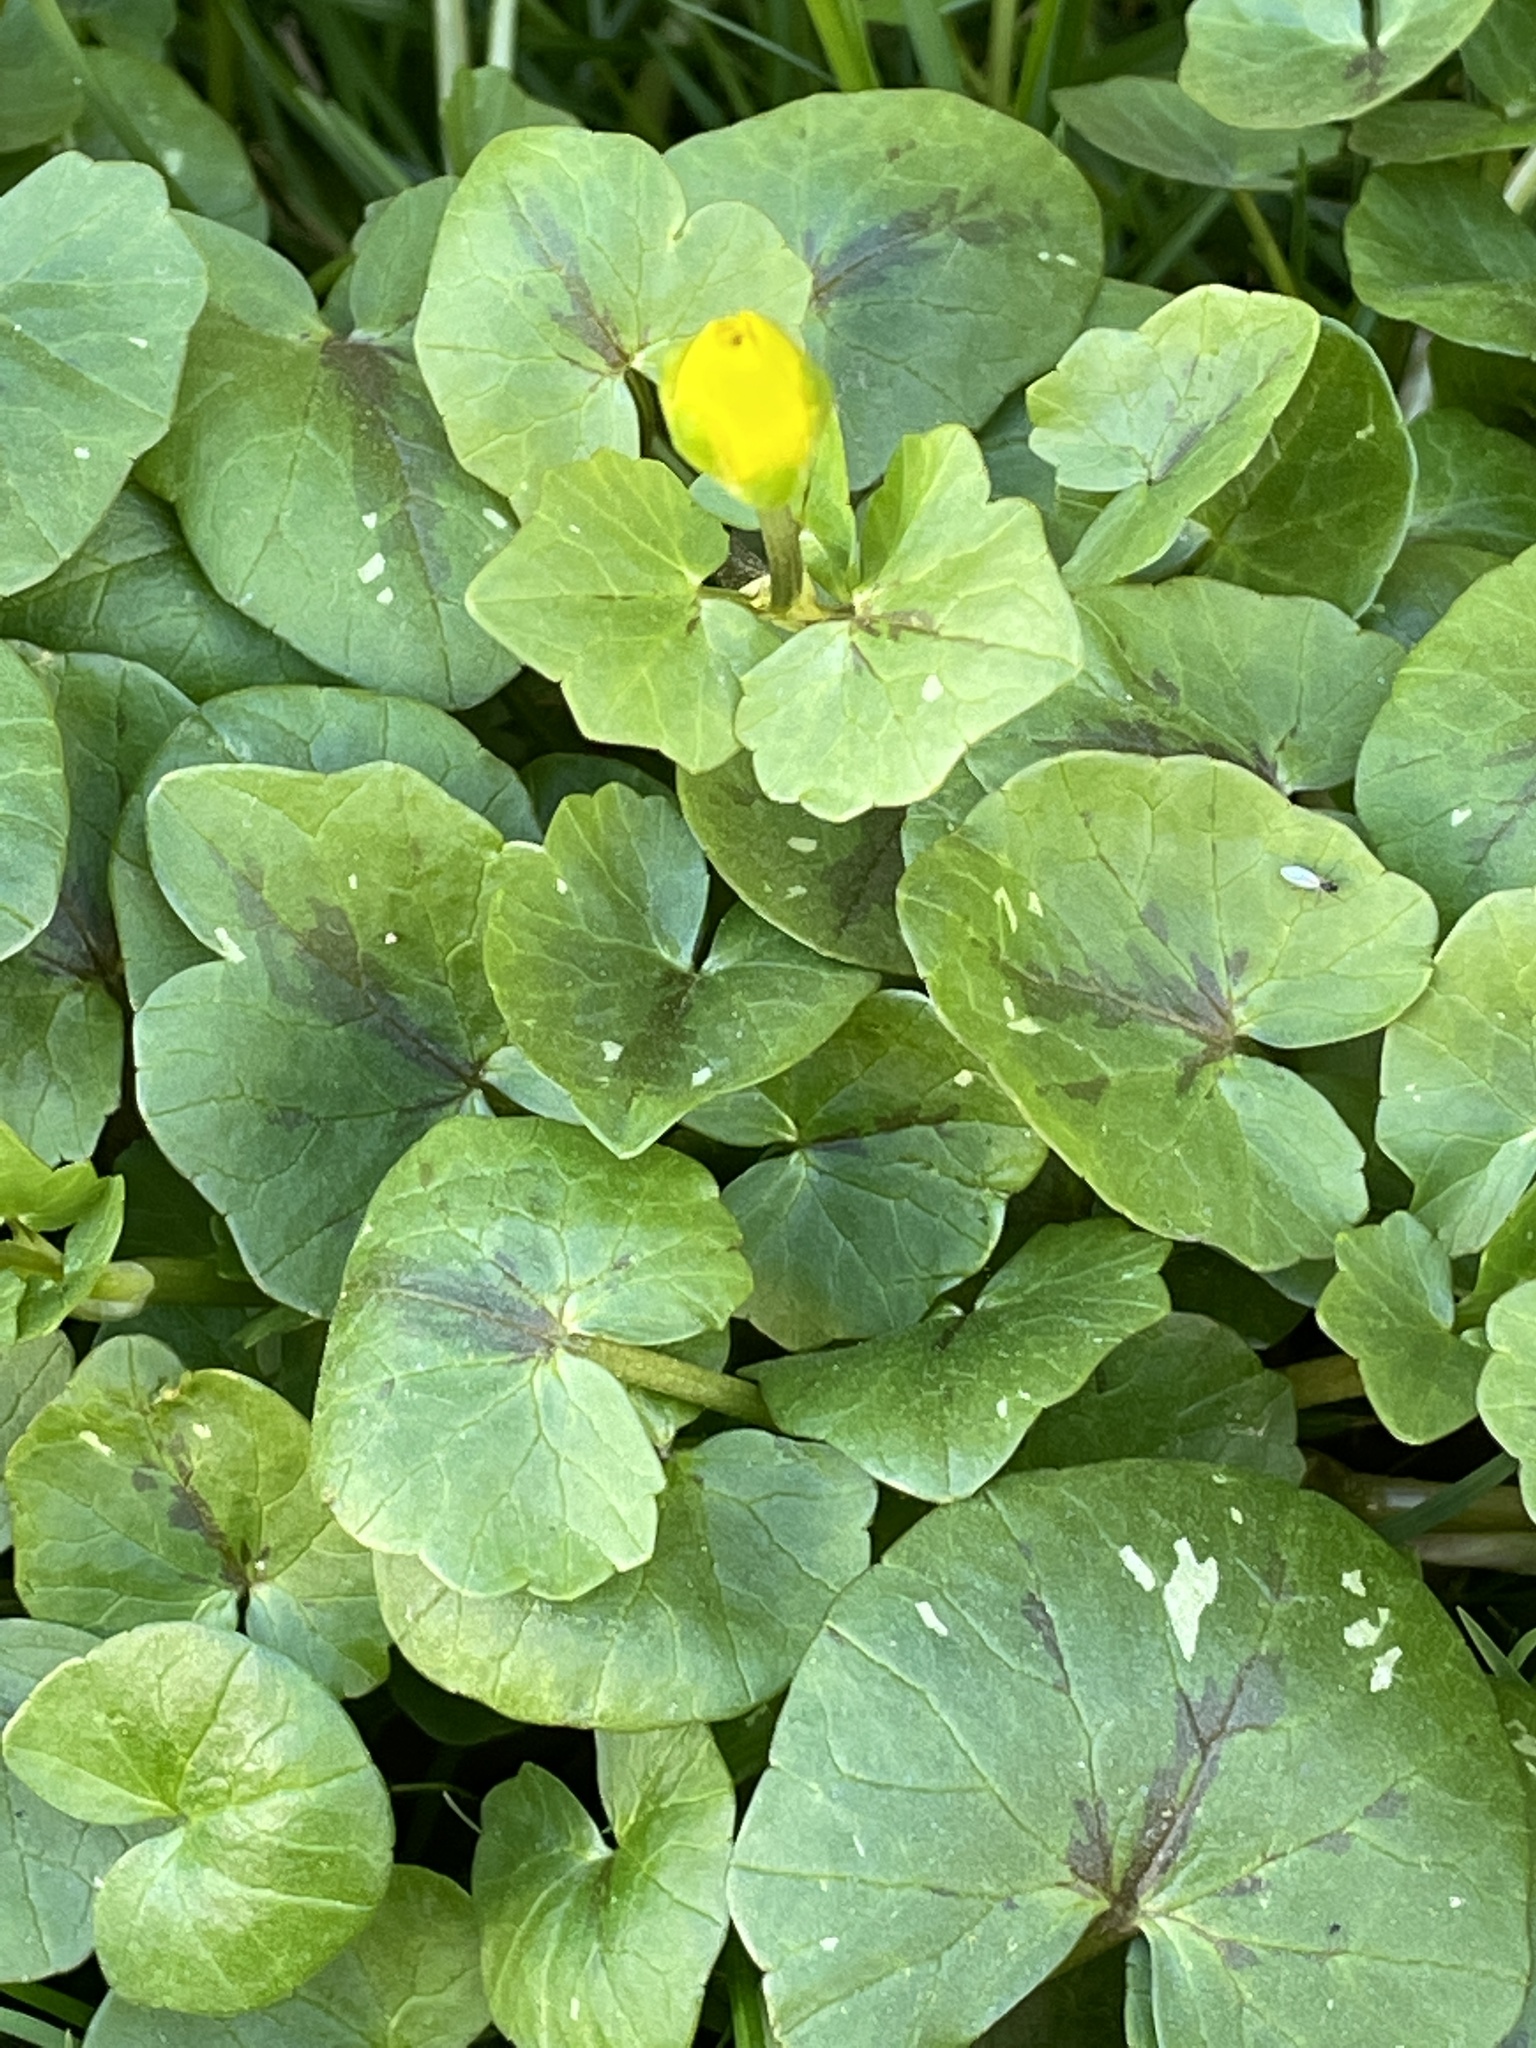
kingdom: Plantae
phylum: Tracheophyta
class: Magnoliopsida
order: Ranunculales
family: Ranunculaceae
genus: Ficaria
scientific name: Ficaria verna
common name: Lesser celandine
